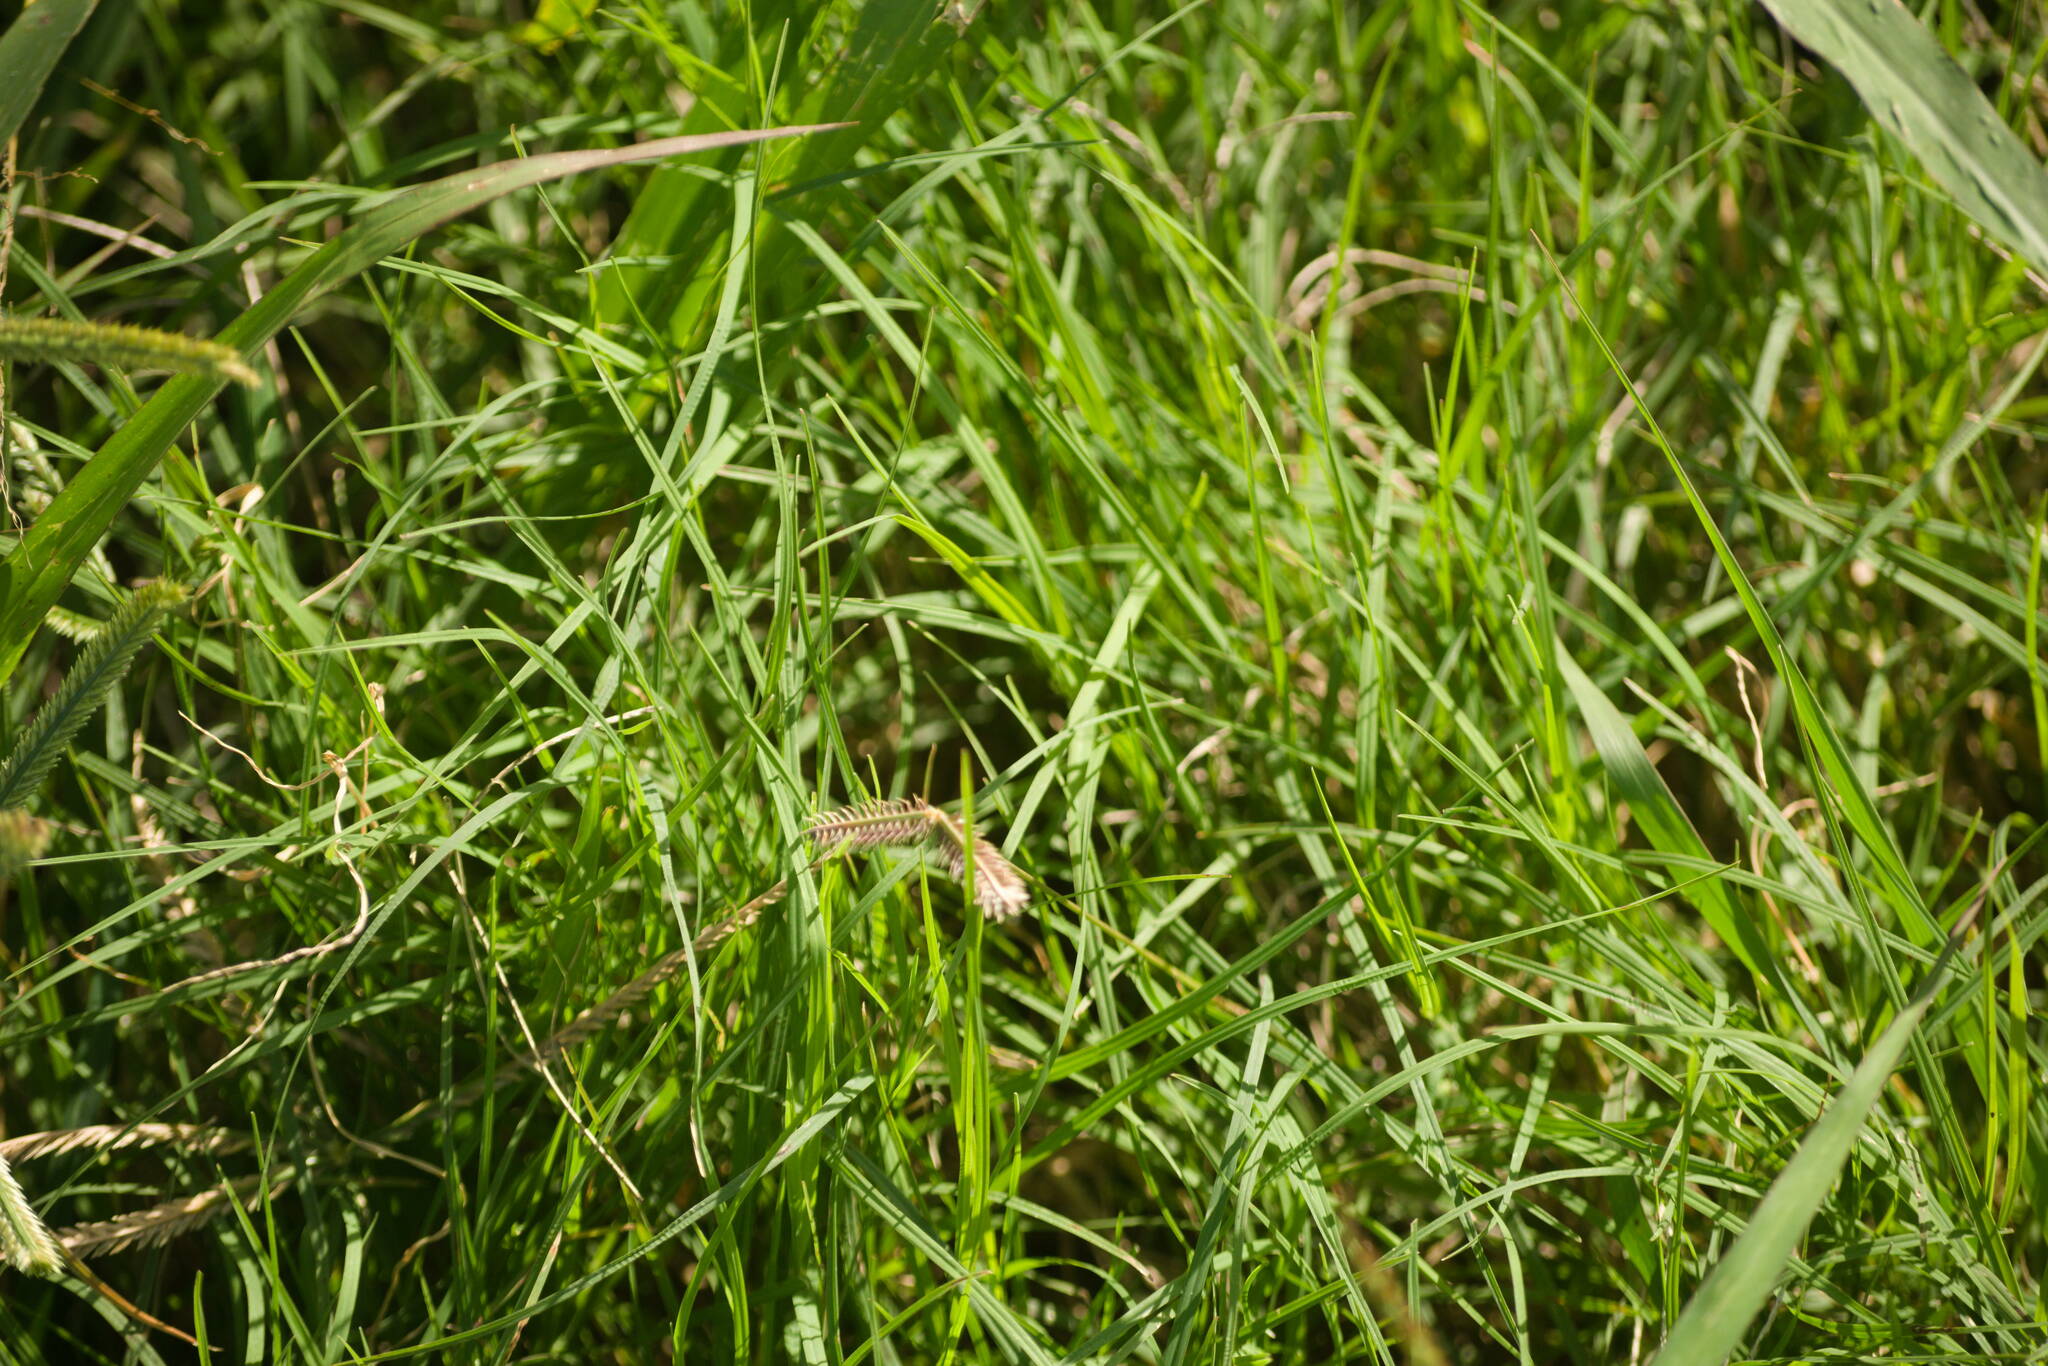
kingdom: Plantae
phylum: Tracheophyta
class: Liliopsida
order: Poales
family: Poaceae
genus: Dactyloctenium
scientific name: Dactyloctenium aegyptium
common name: Egyptian grass
